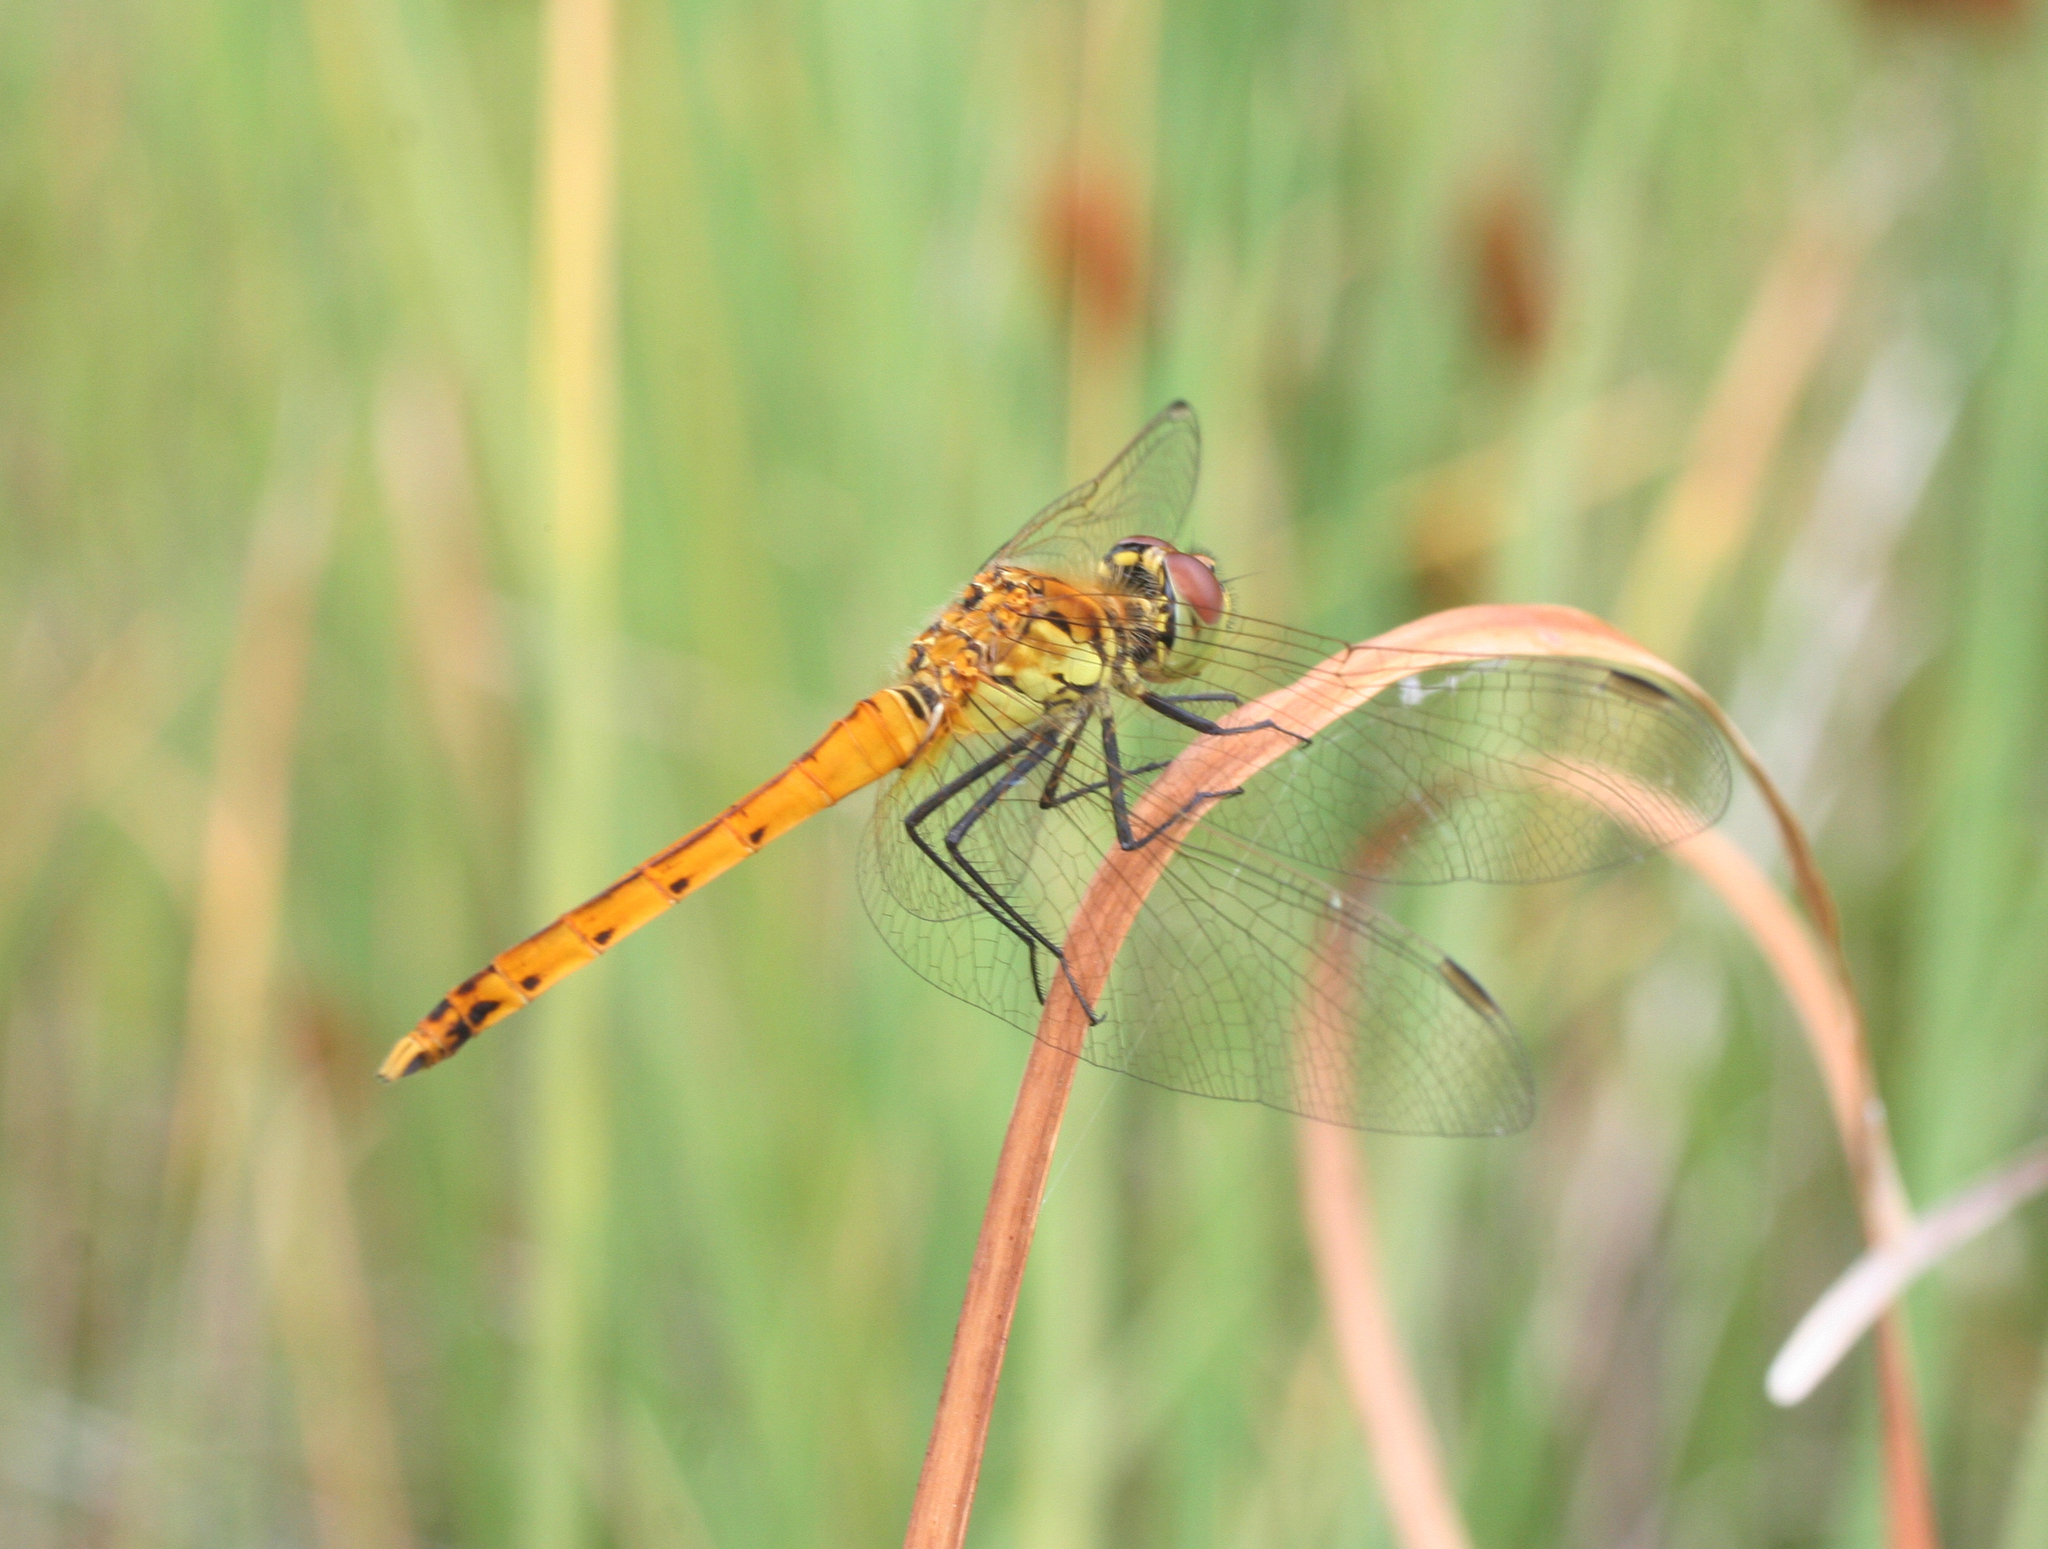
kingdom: Animalia
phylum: Arthropoda
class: Insecta
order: Odonata
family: Libellulidae
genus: Sympetrum
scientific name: Sympetrum depressiusculum
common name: Spotted darter
